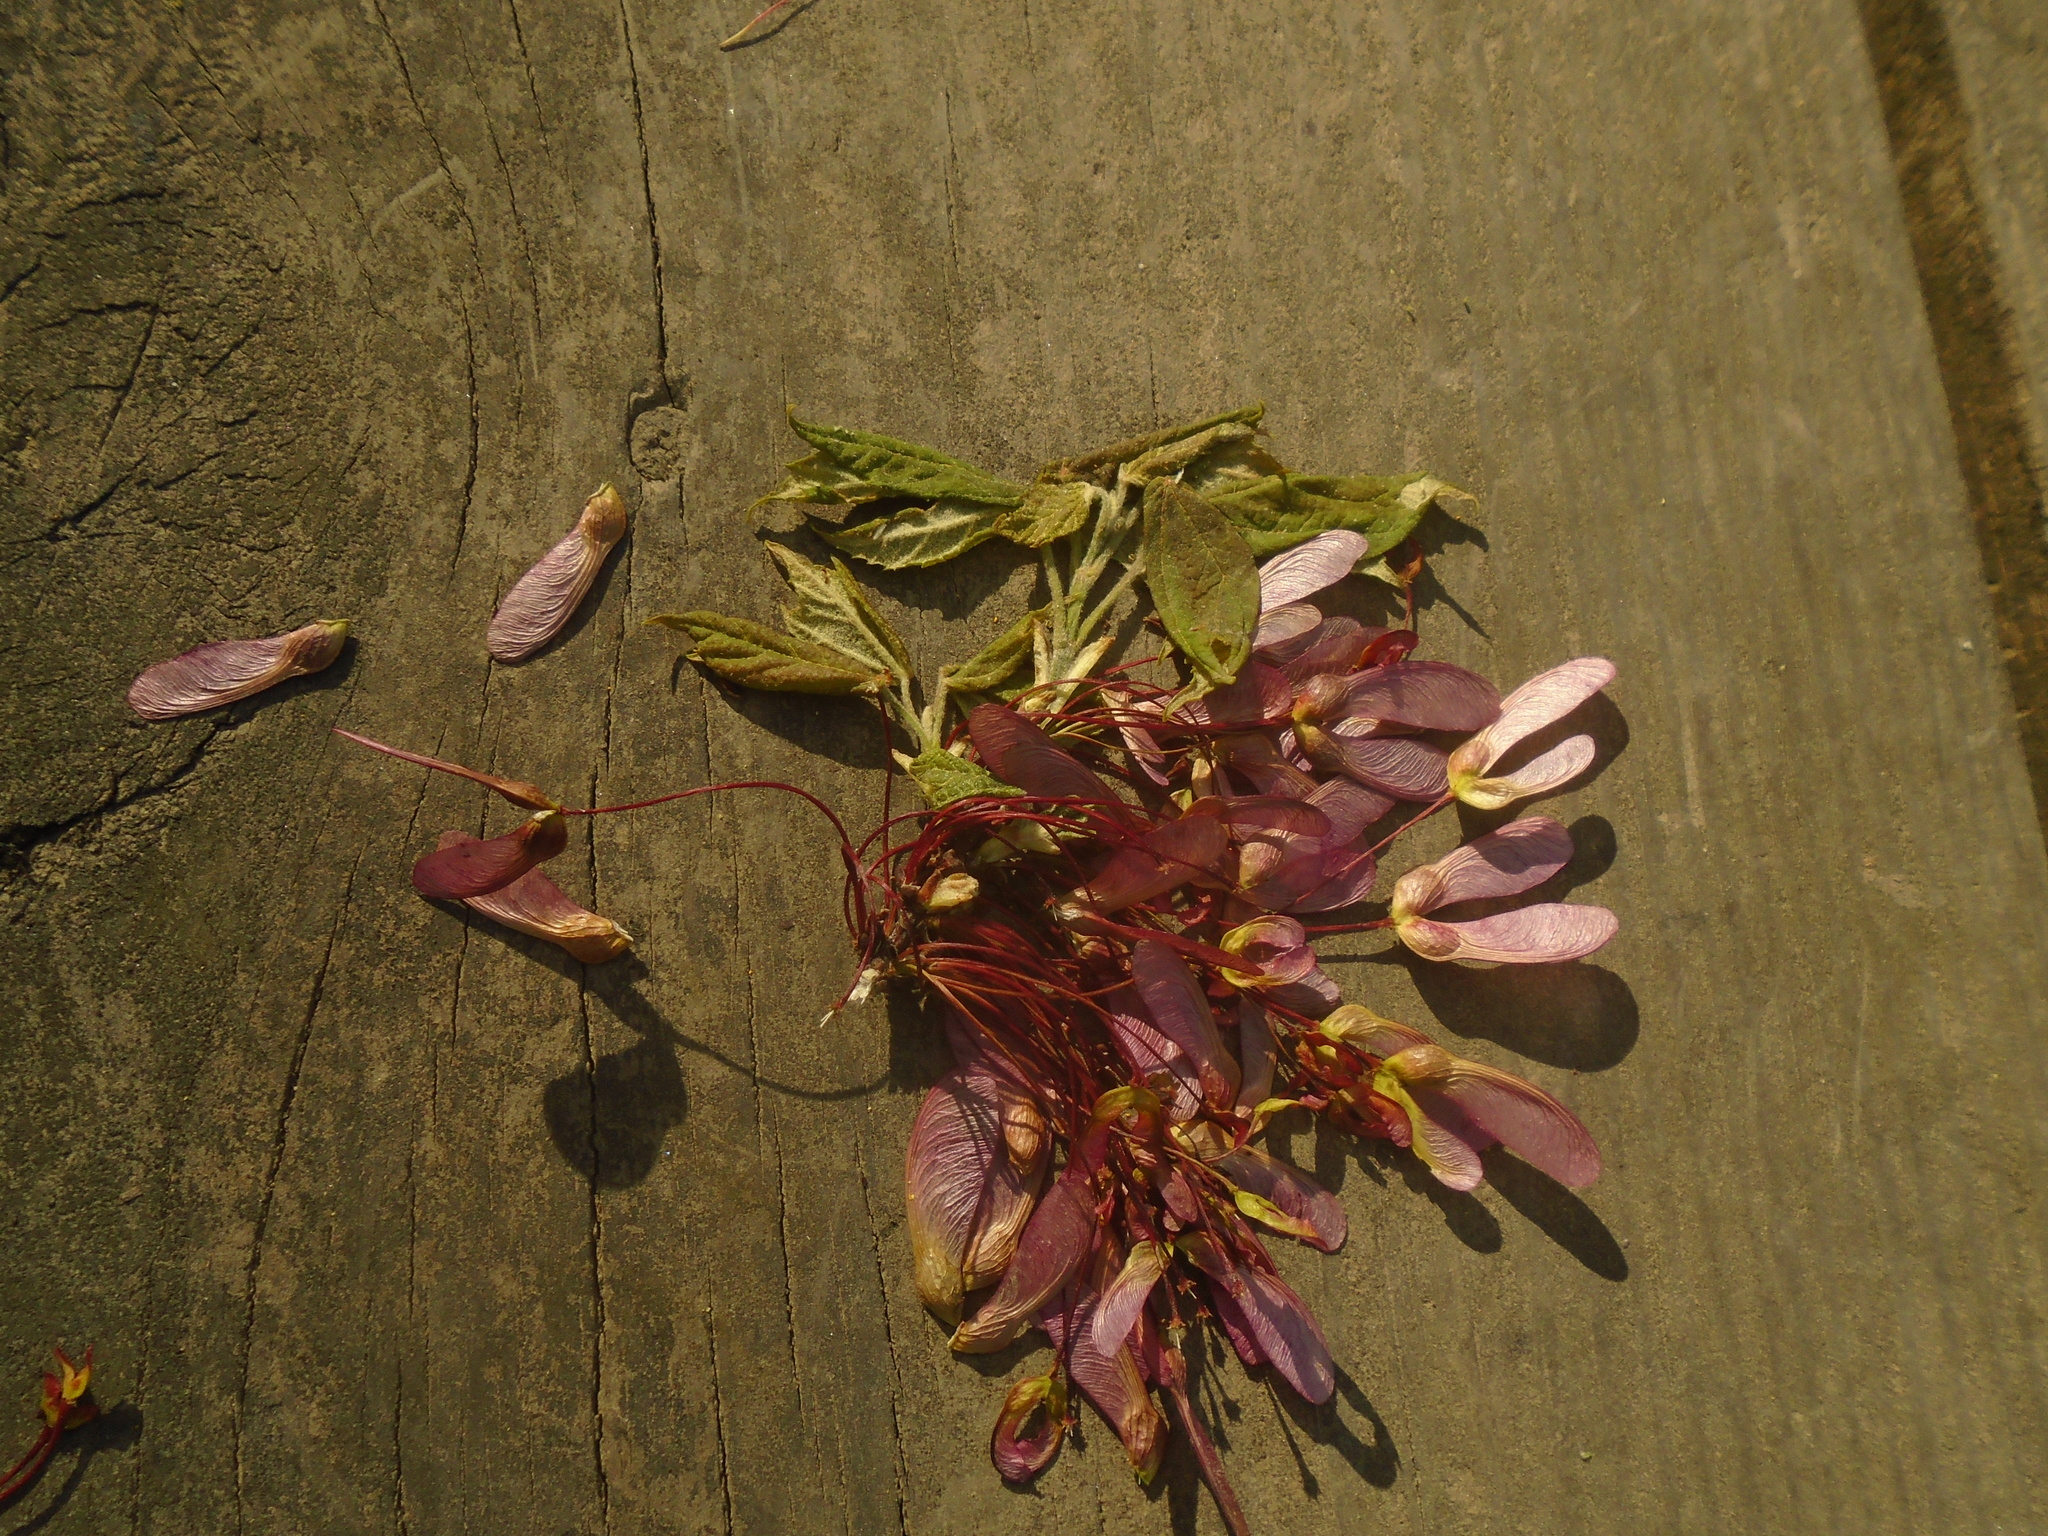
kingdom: Plantae
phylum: Tracheophyta
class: Magnoliopsida
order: Sapindales
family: Sapindaceae
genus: Acer
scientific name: Acer rubrum
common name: Red maple
